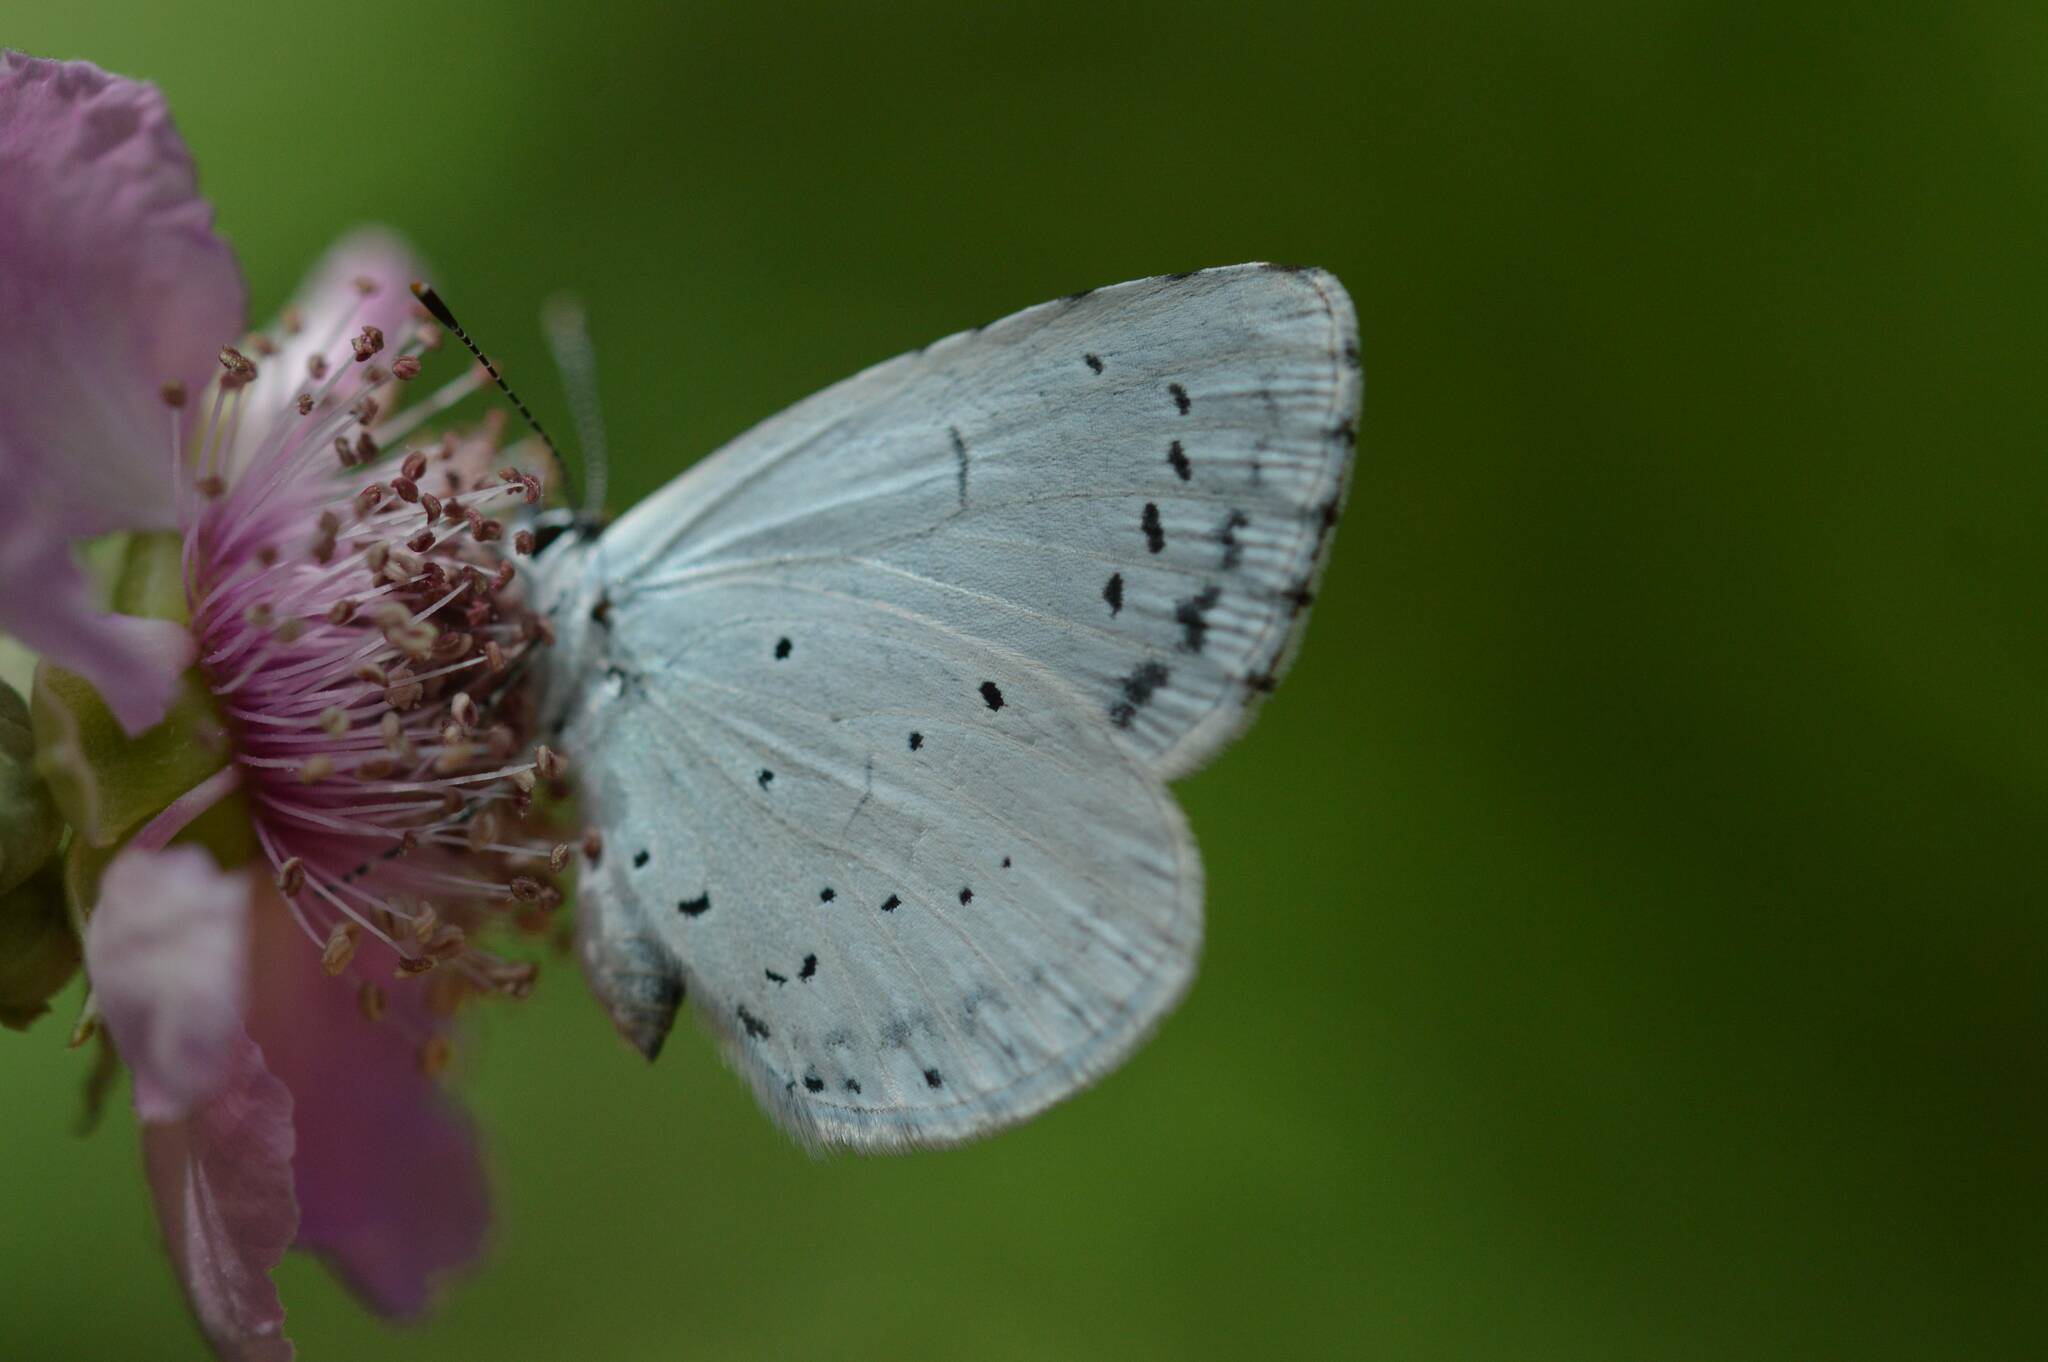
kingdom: Animalia
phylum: Arthropoda
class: Insecta
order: Lepidoptera
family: Lycaenidae
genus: Celastrina
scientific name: Celastrina argiolus
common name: Holly blue
